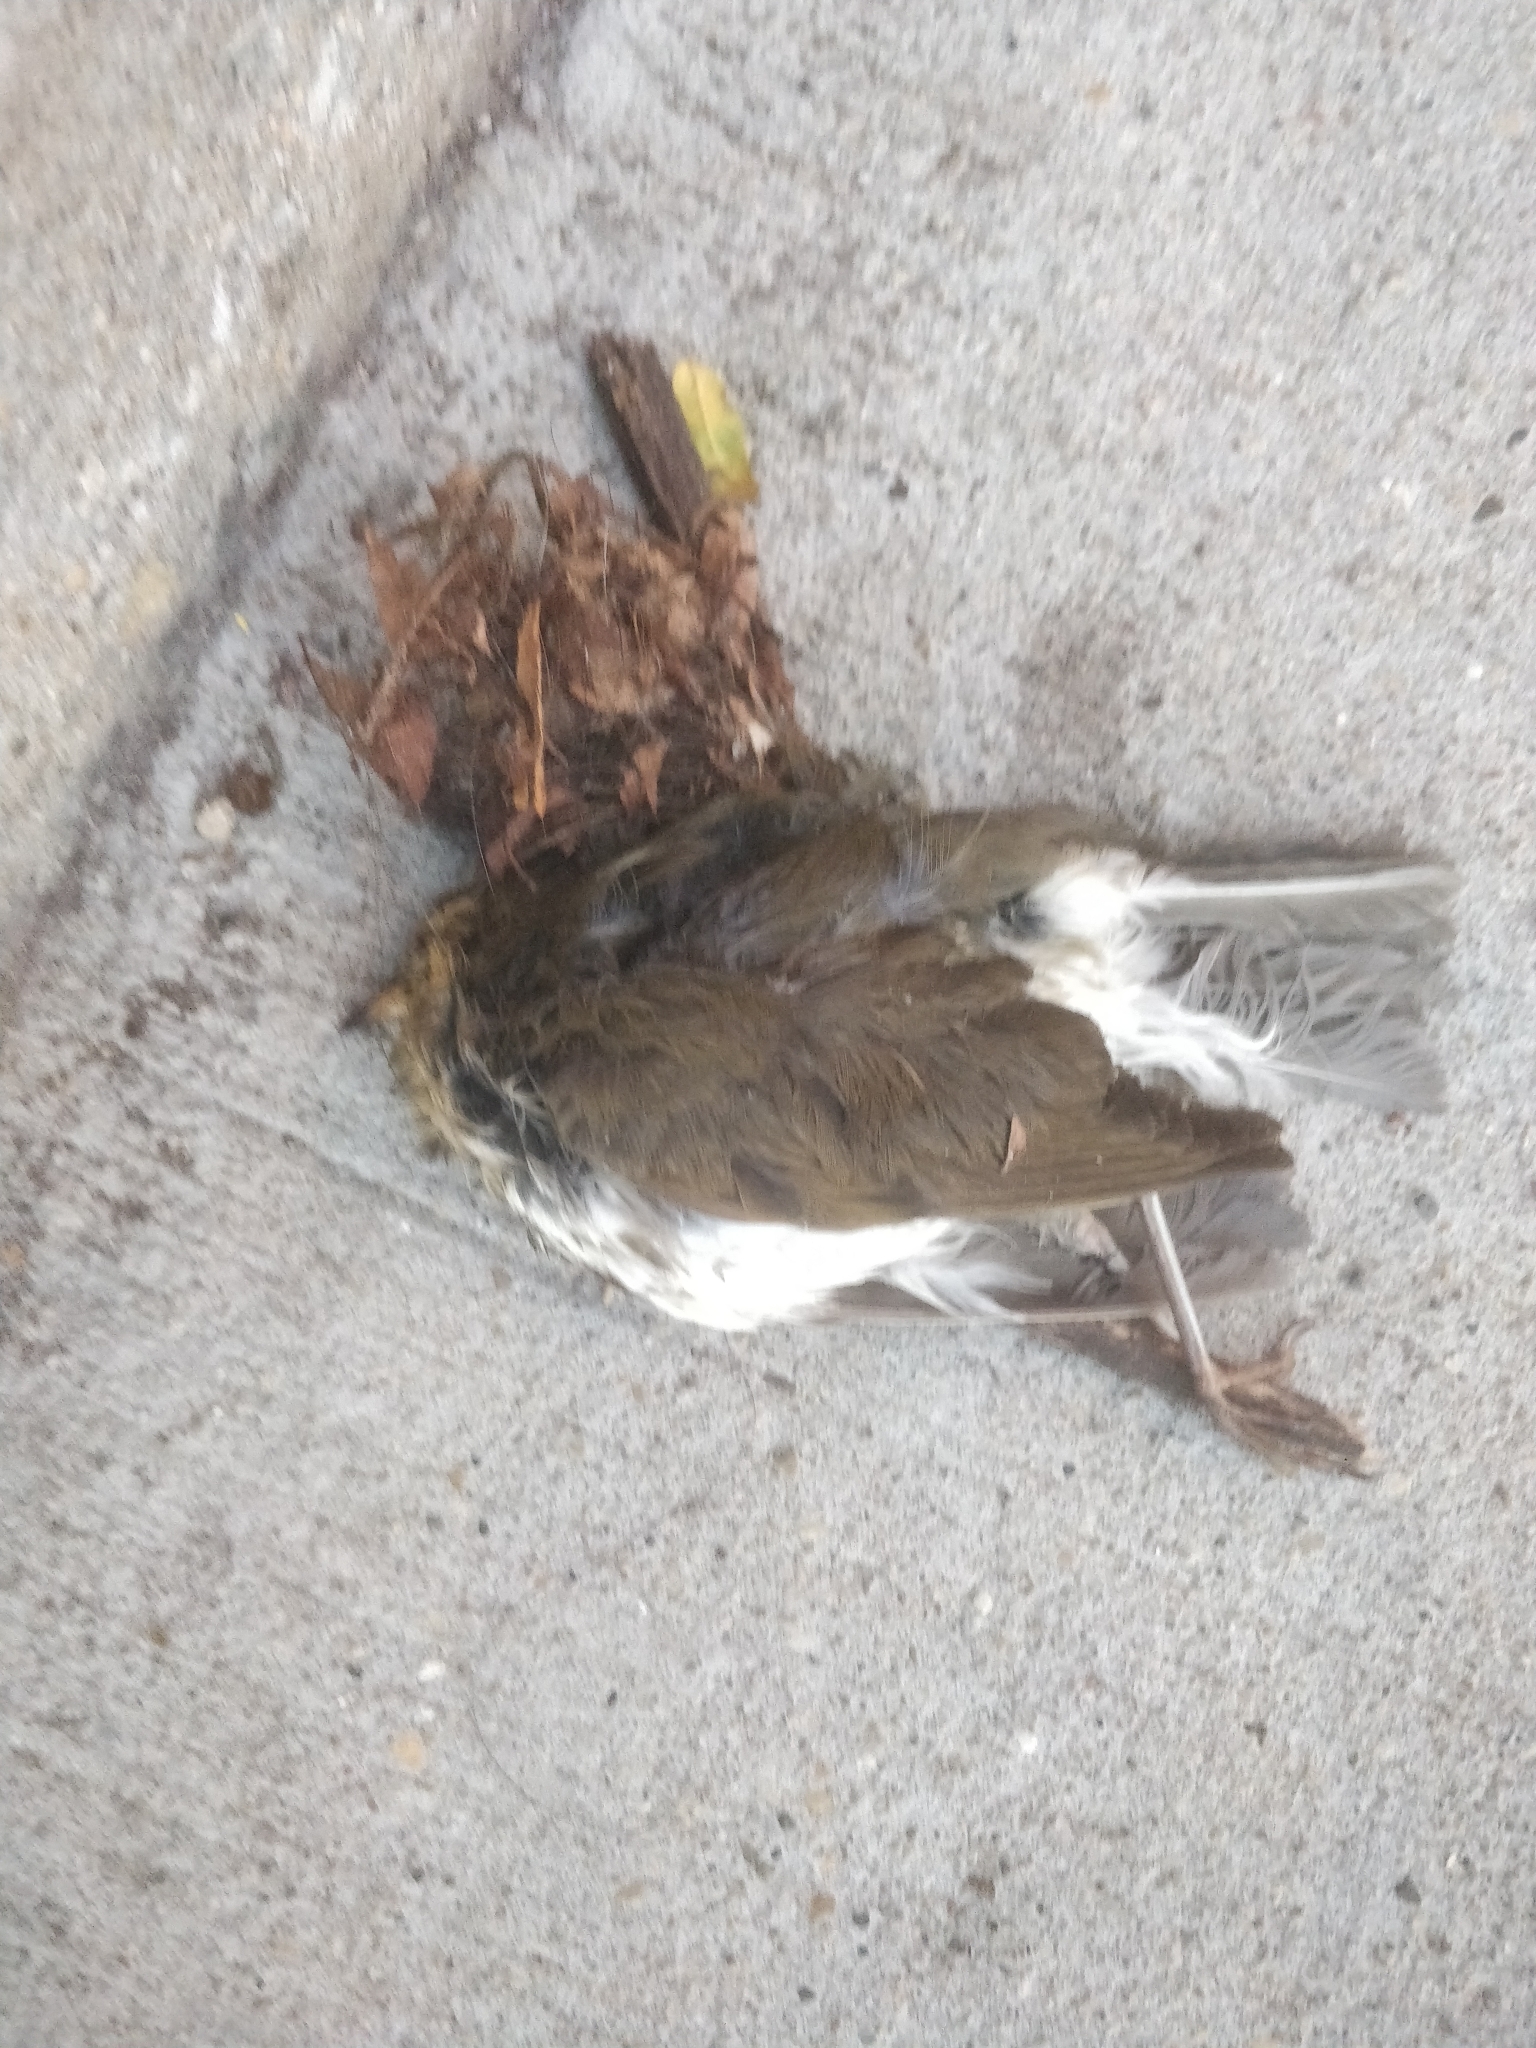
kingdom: Animalia
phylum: Chordata
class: Aves
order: Passeriformes
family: Parulidae
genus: Seiurus
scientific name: Seiurus aurocapilla
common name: Ovenbird
